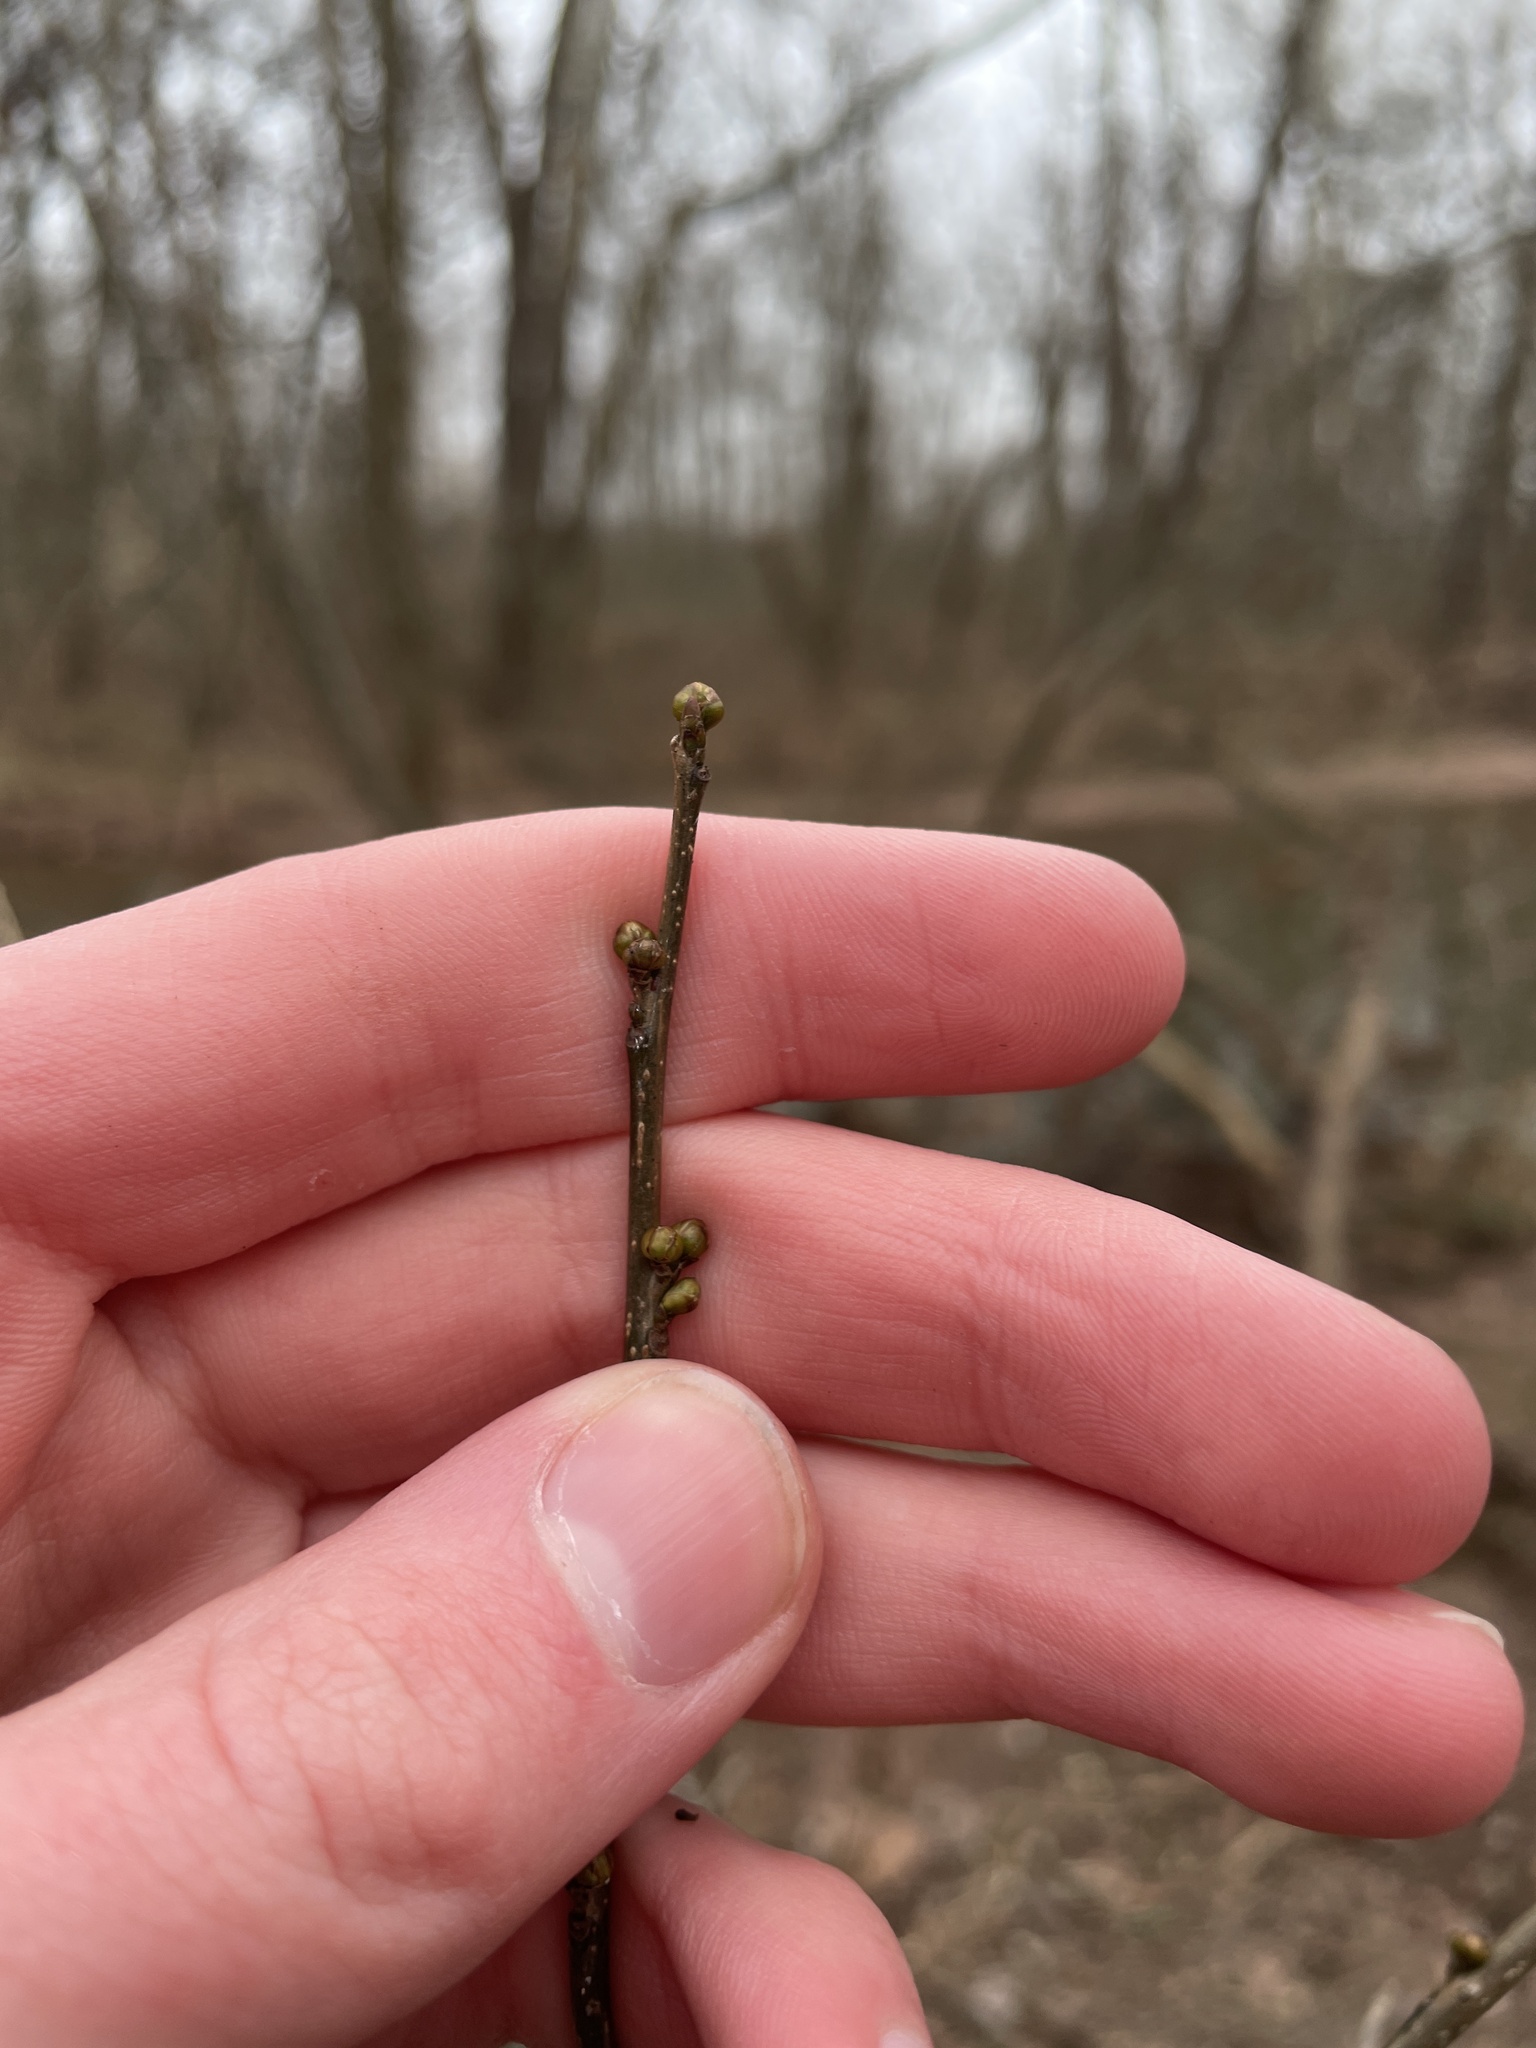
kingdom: Plantae
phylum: Tracheophyta
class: Magnoliopsida
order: Laurales
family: Lauraceae
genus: Lindera
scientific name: Lindera benzoin
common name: Spicebush
